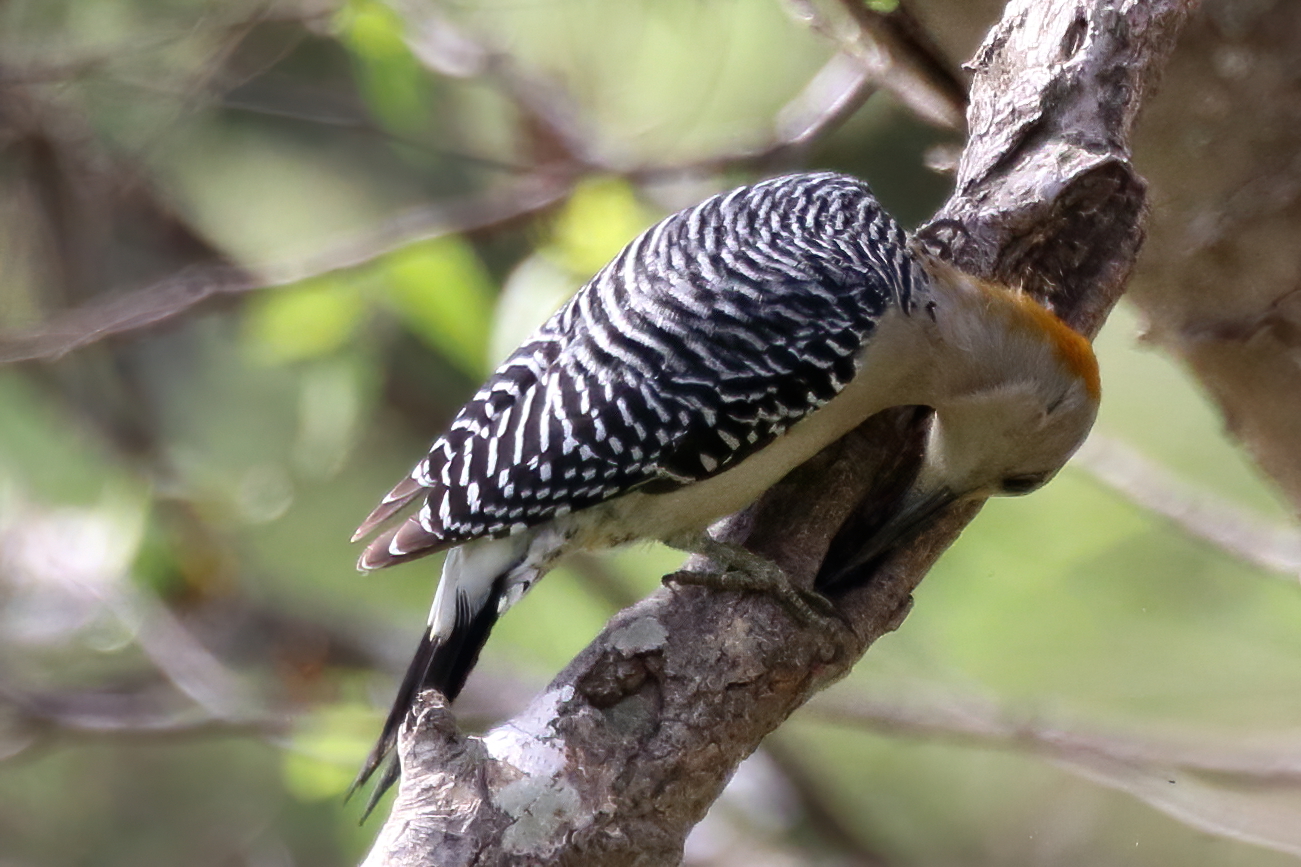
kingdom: Animalia
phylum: Chordata
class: Aves
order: Piciformes
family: Picidae
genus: Melanerpes
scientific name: Melanerpes aurifrons
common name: Golden-fronted woodpecker
